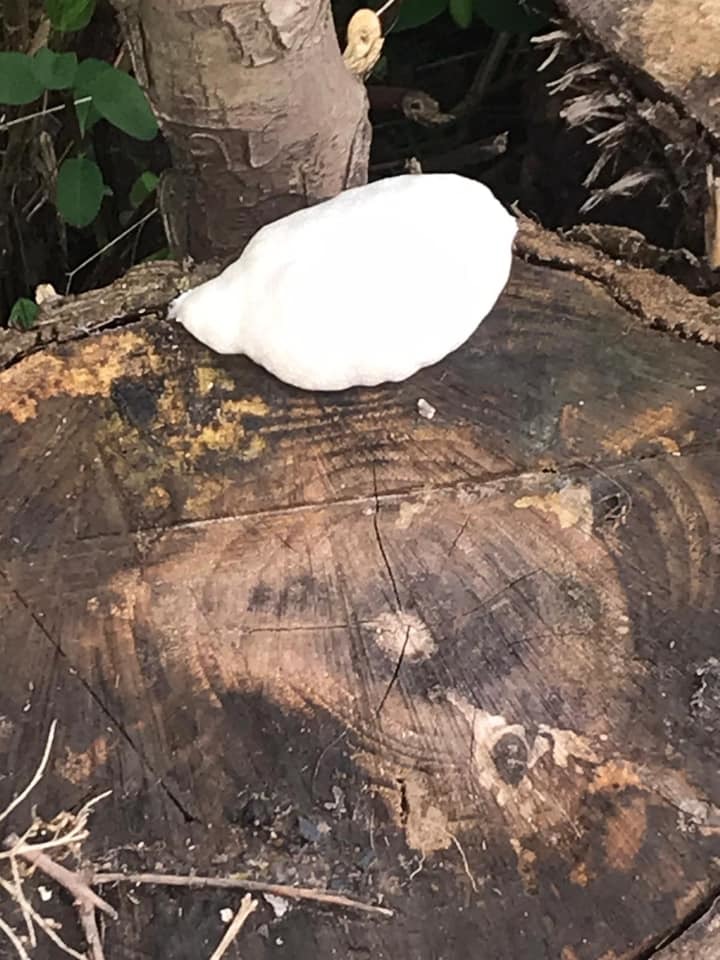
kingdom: Protozoa
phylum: Mycetozoa
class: Myxomycetes
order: Cribrariales
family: Tubiferaceae
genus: Reticularia
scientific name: Reticularia lycoperdon
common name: False puffball
